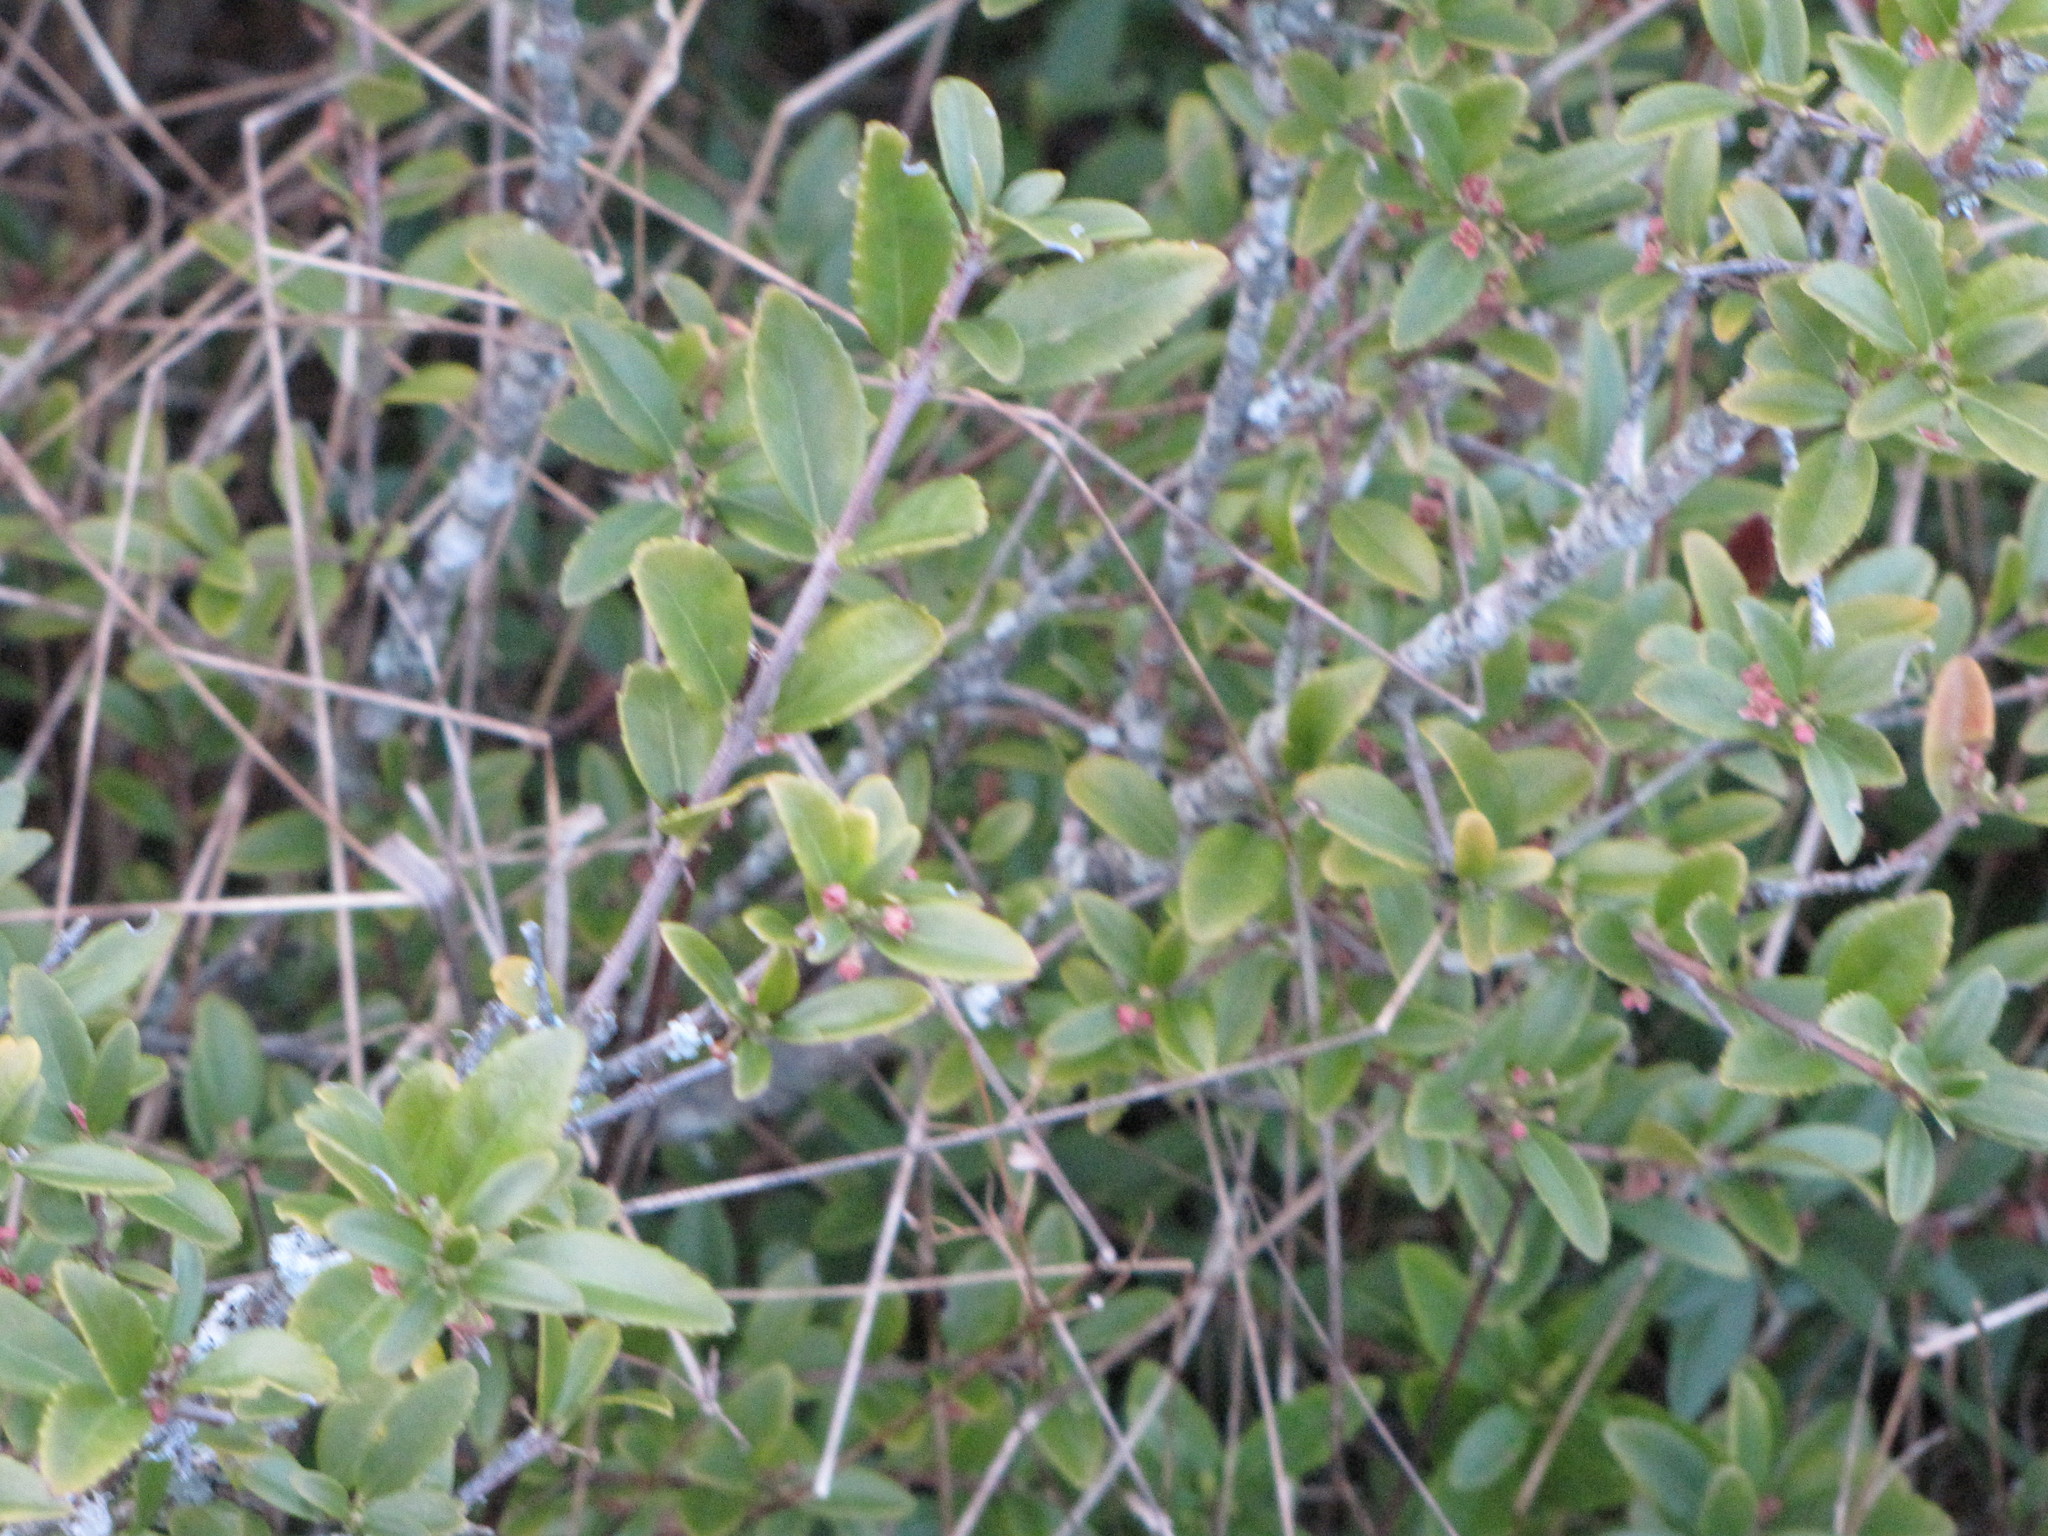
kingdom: Plantae
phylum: Tracheophyta
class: Magnoliopsida
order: Celastrales
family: Celastraceae
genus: Paxistima
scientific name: Paxistima myrsinites
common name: Mountain-lover
